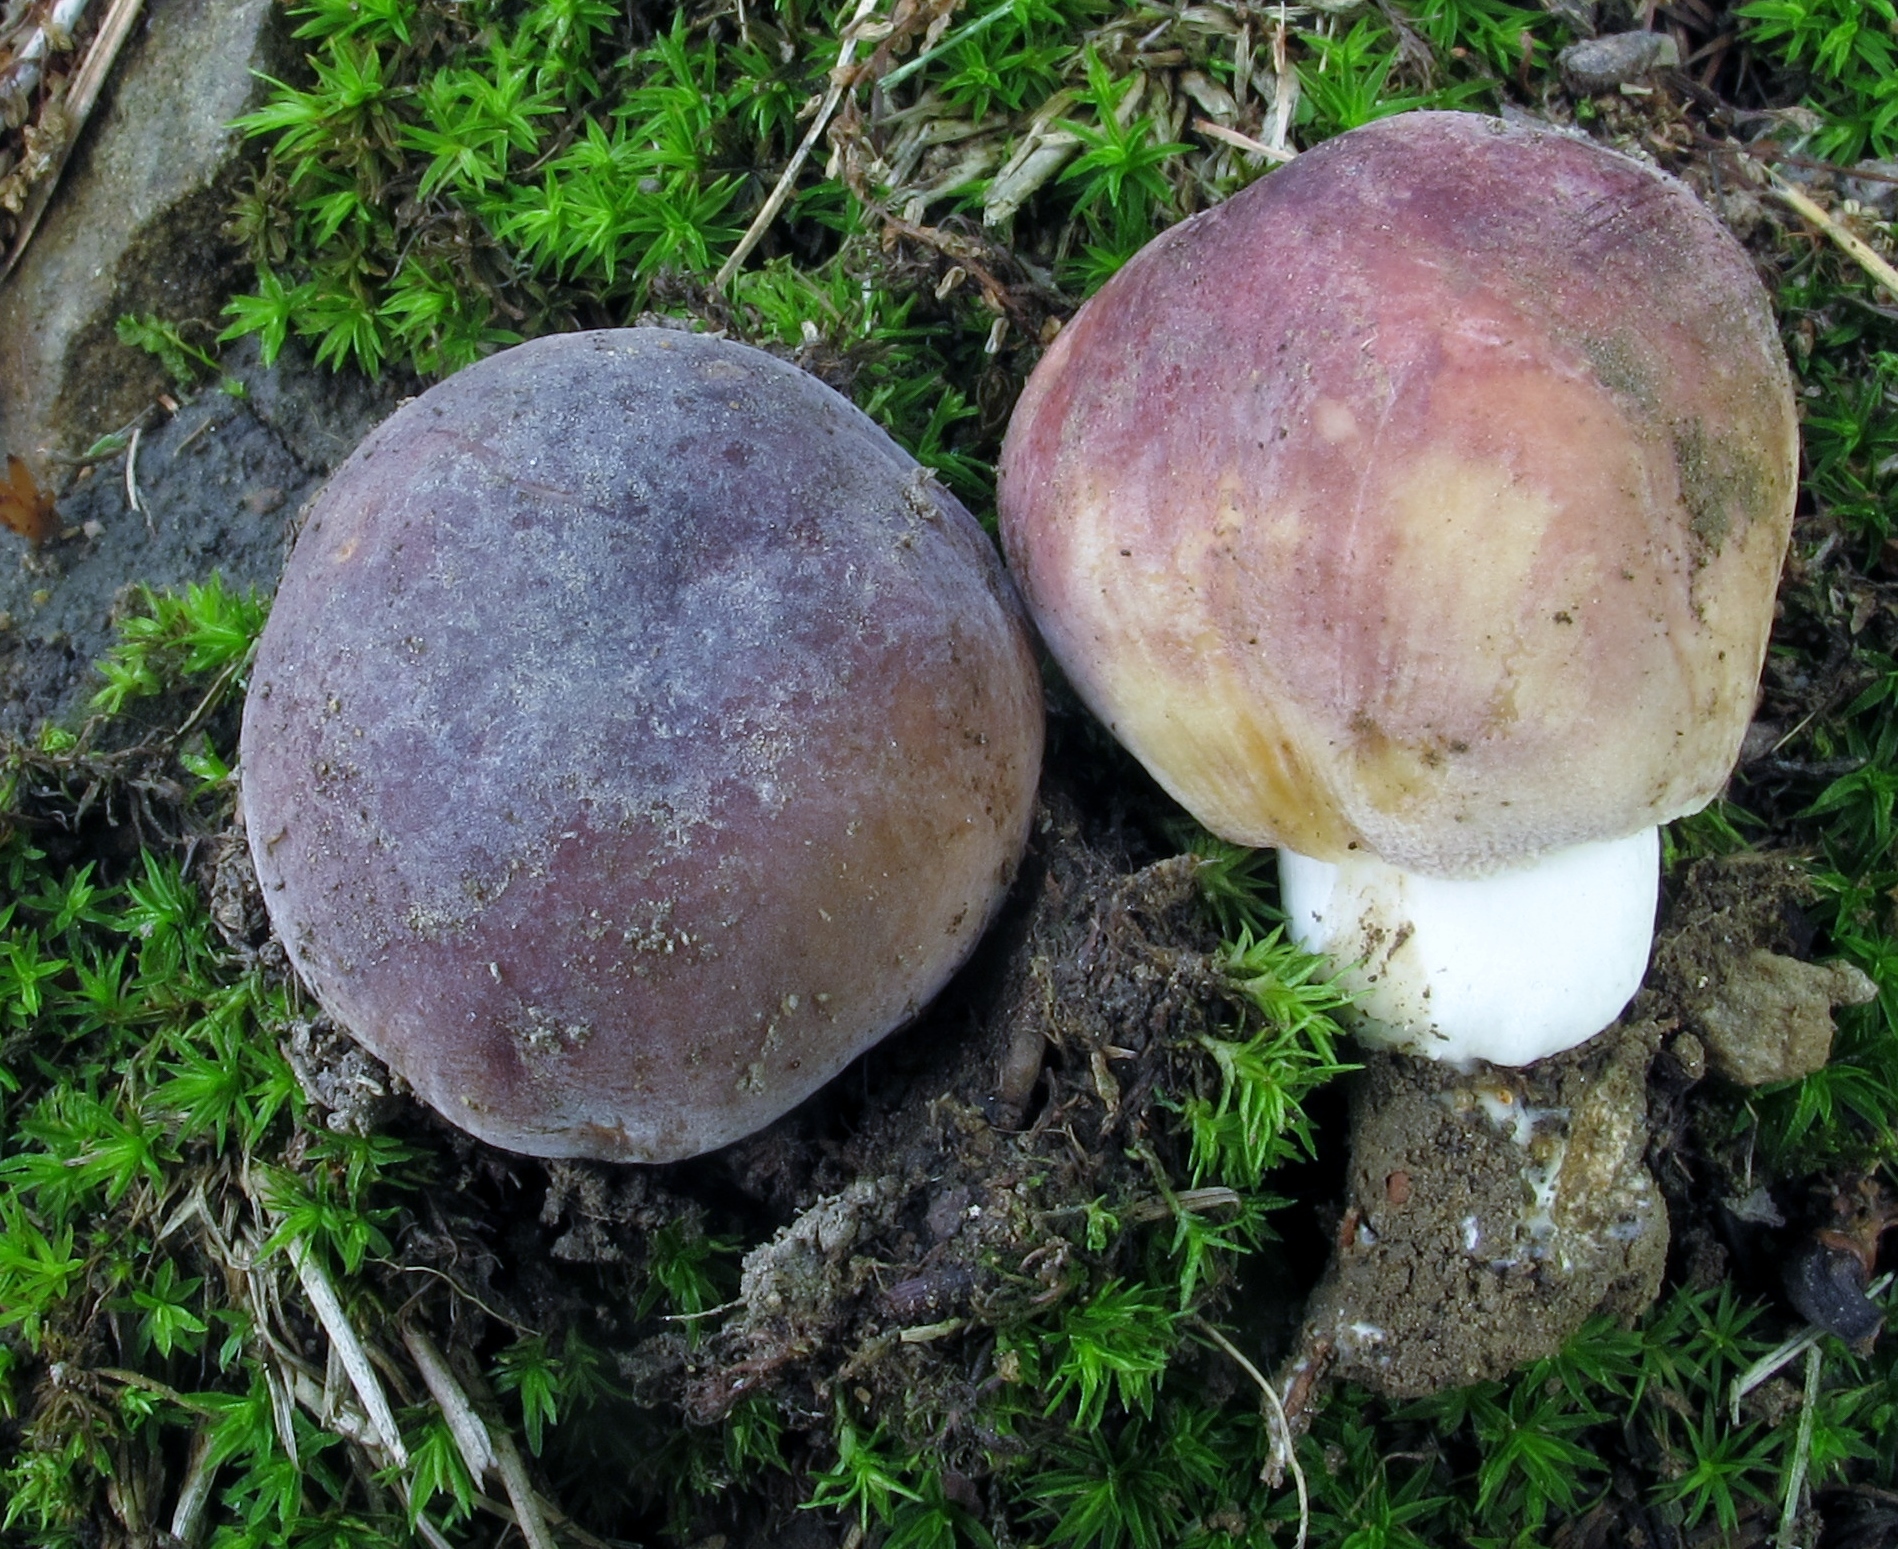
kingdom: Fungi
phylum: Basidiomycota
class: Agaricomycetes
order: Russulales
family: Russulaceae
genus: Russula
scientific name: Russula mariae
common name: Purple-bloom russula
